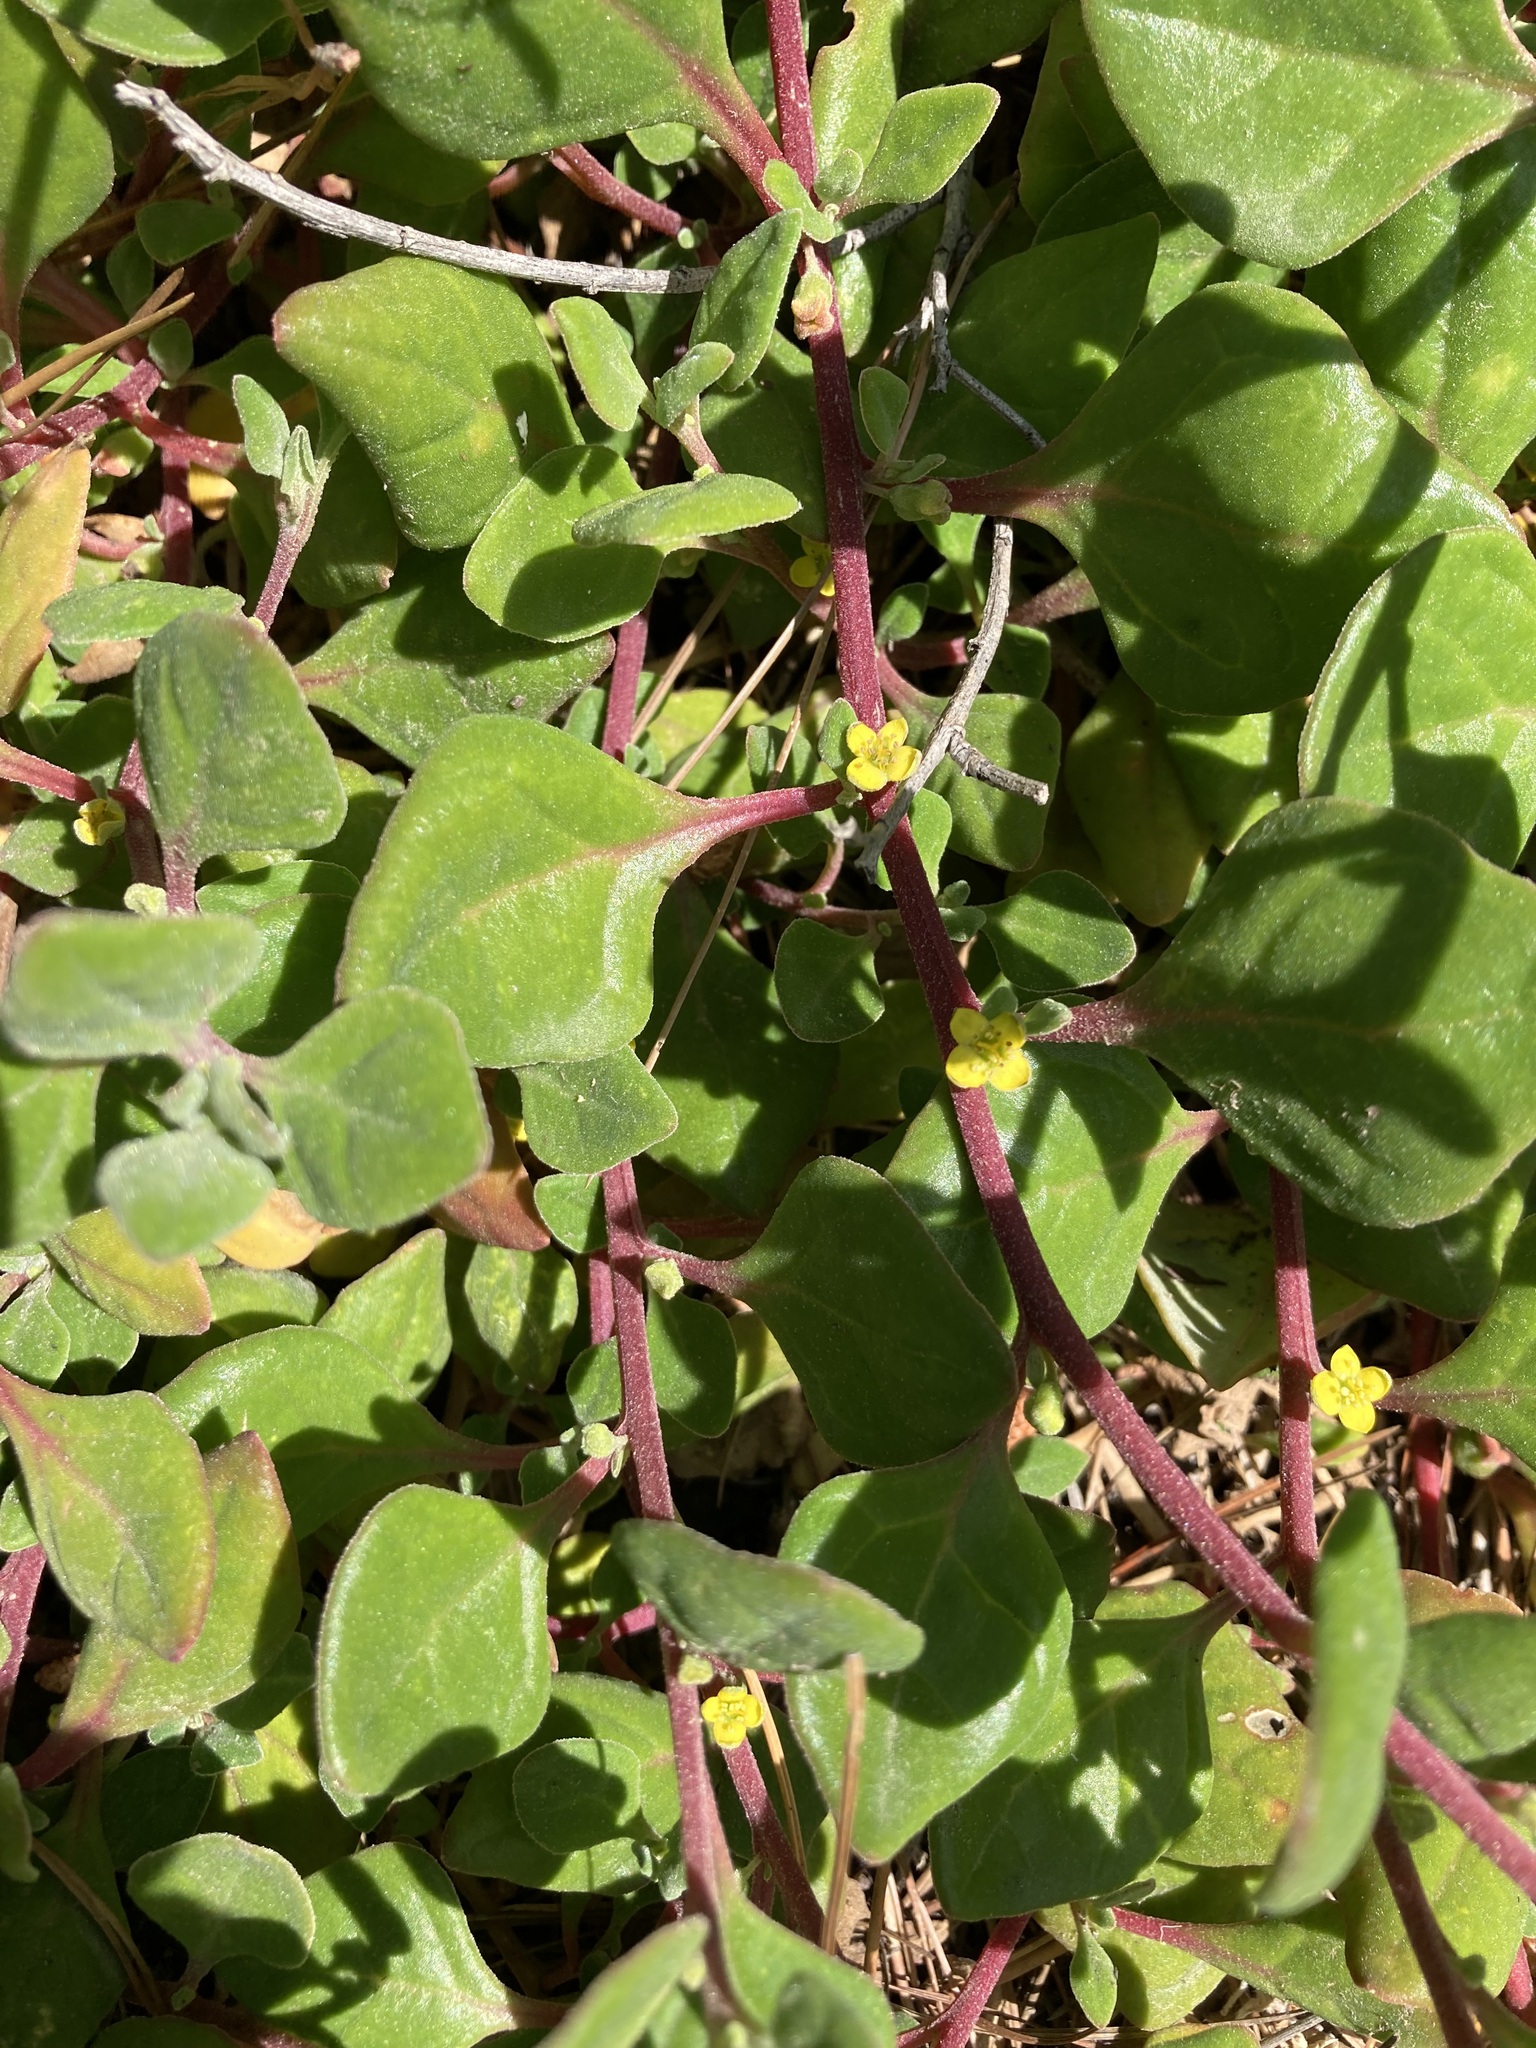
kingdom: Plantae
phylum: Tracheophyta
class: Magnoliopsida
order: Caryophyllales
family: Aizoaceae
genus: Tetragonia
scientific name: Tetragonia implexicoma
